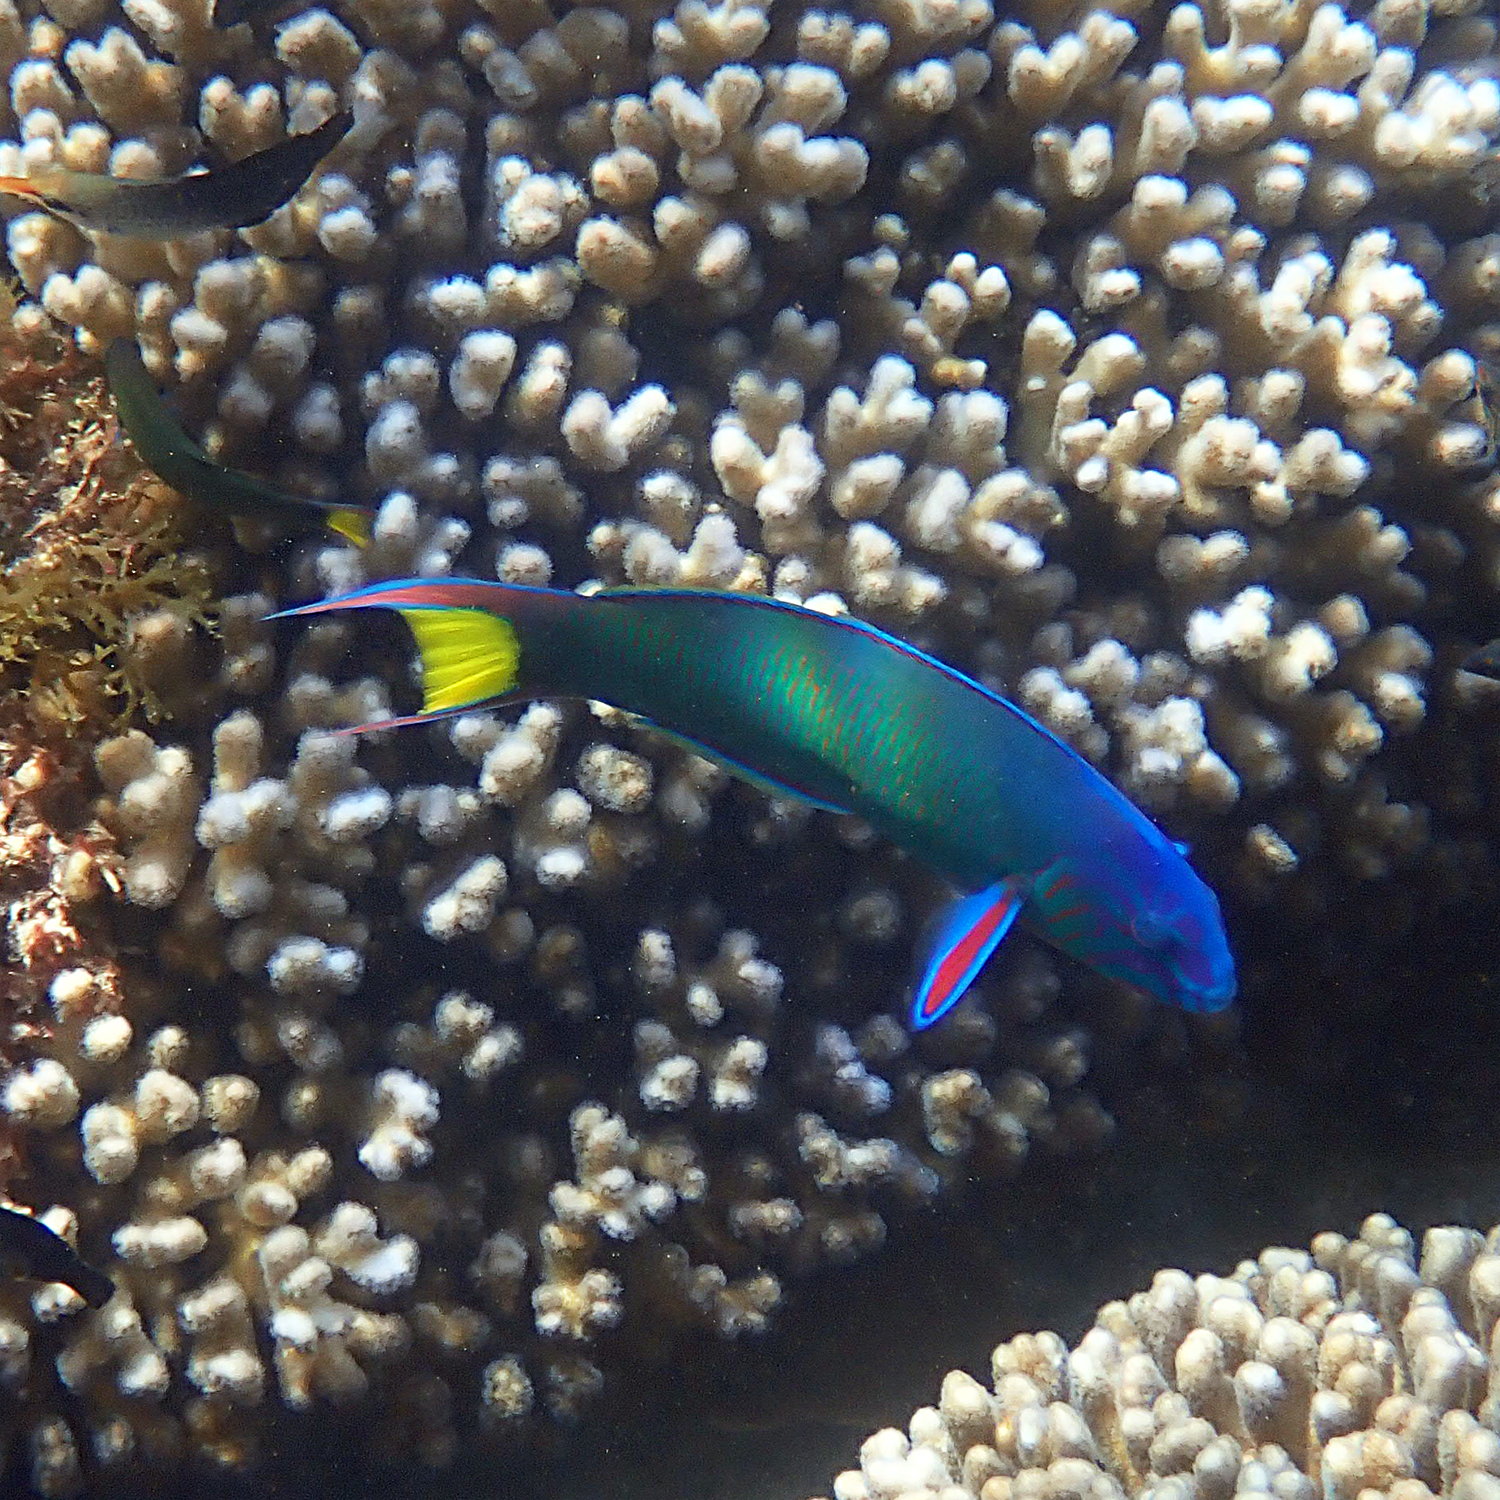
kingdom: Animalia
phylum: Chordata
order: Perciformes
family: Labridae
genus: Thalassoma
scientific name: Thalassoma lunare
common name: Blue wrasse
